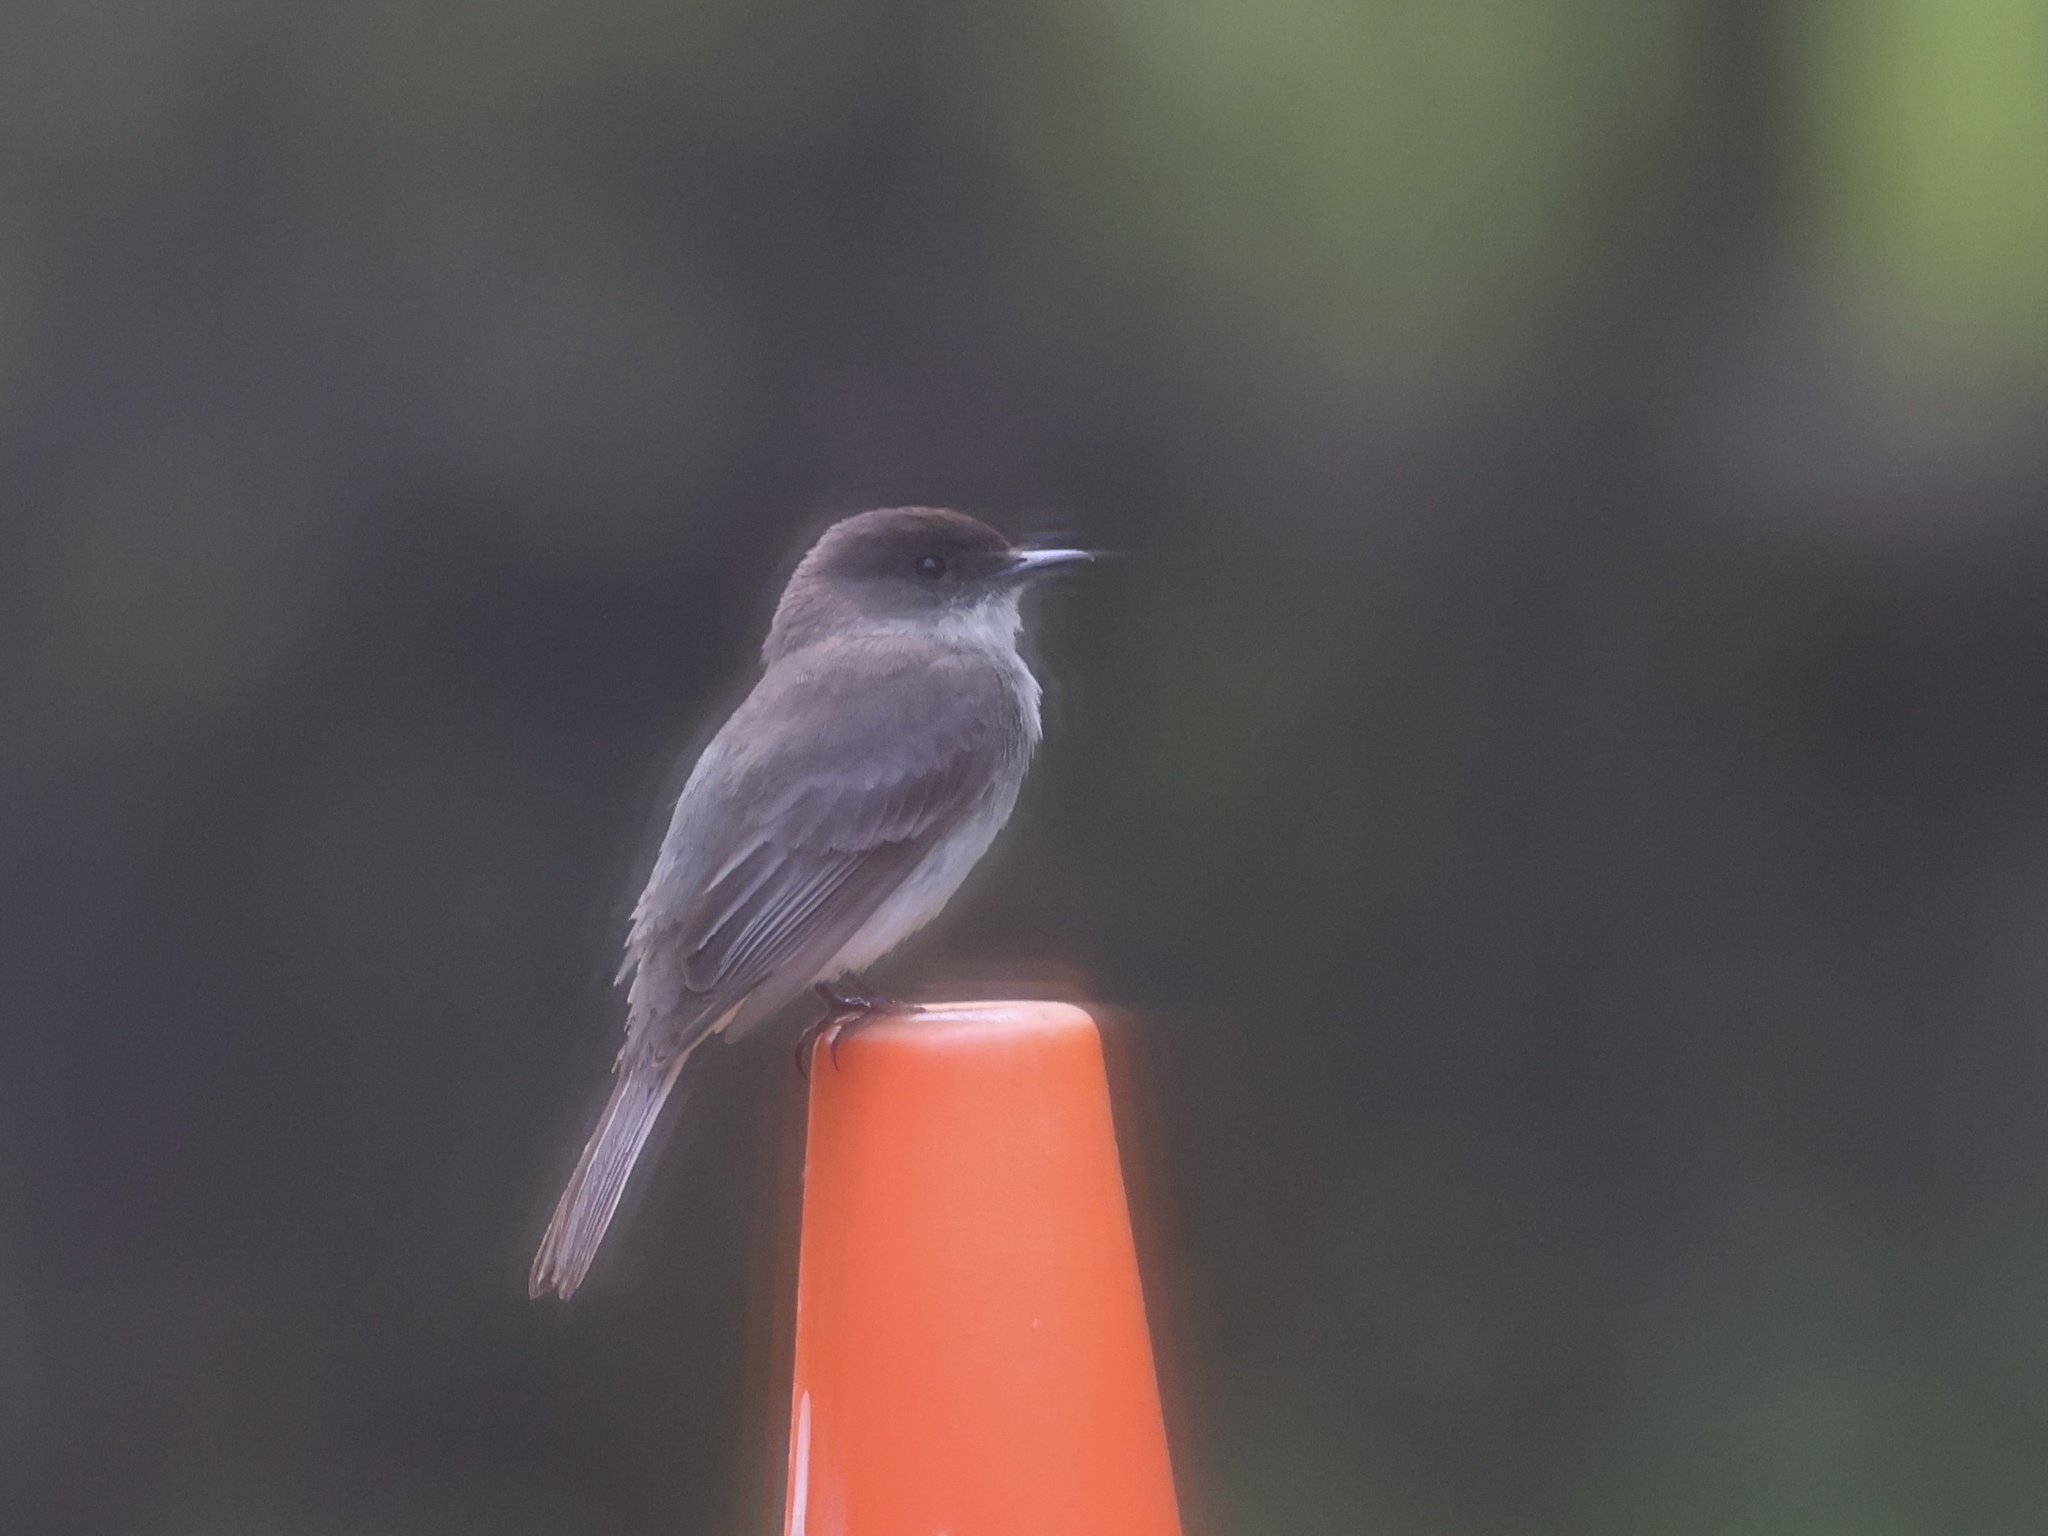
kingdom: Animalia
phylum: Chordata
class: Aves
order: Passeriformes
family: Tyrannidae
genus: Sayornis
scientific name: Sayornis phoebe
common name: Eastern phoebe
